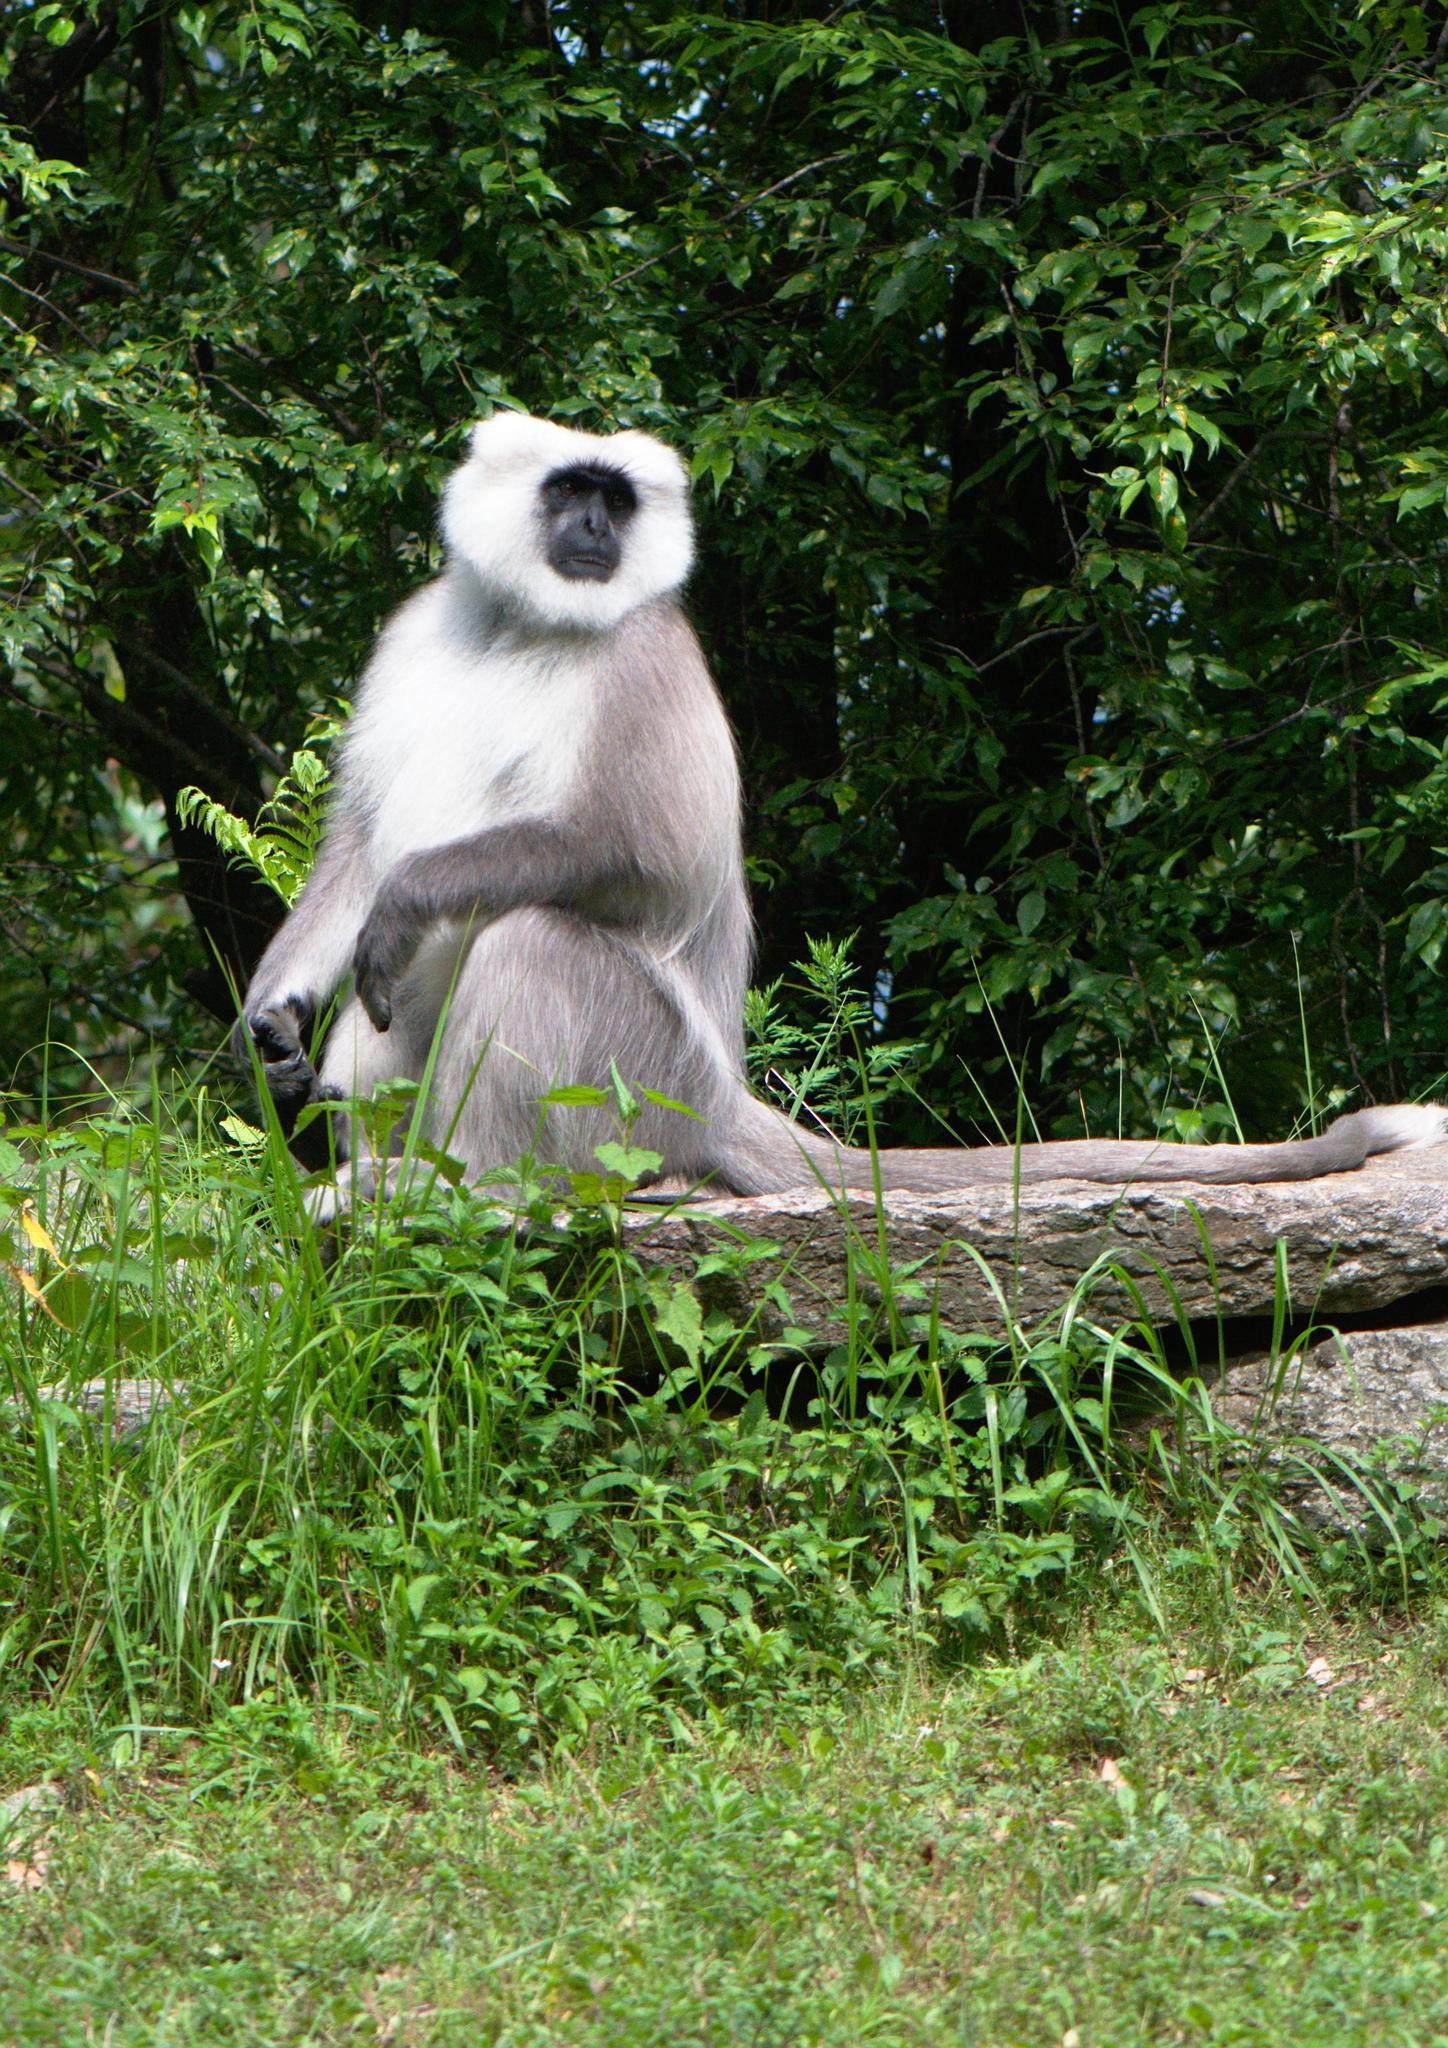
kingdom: Animalia
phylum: Chordata
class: Mammalia
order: Primates
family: Cercopithecidae
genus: Semnopithecus
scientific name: Semnopithecus schistaceus
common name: Nepal gray langur
